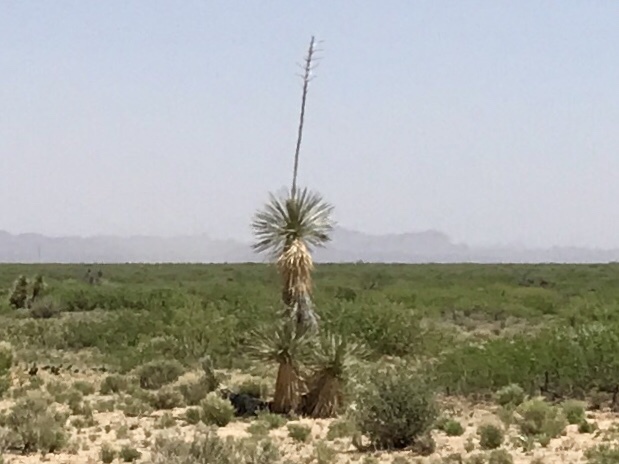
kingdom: Plantae
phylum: Tracheophyta
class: Liliopsida
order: Asparagales
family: Asparagaceae
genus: Yucca
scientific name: Yucca elata
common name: Palmella
